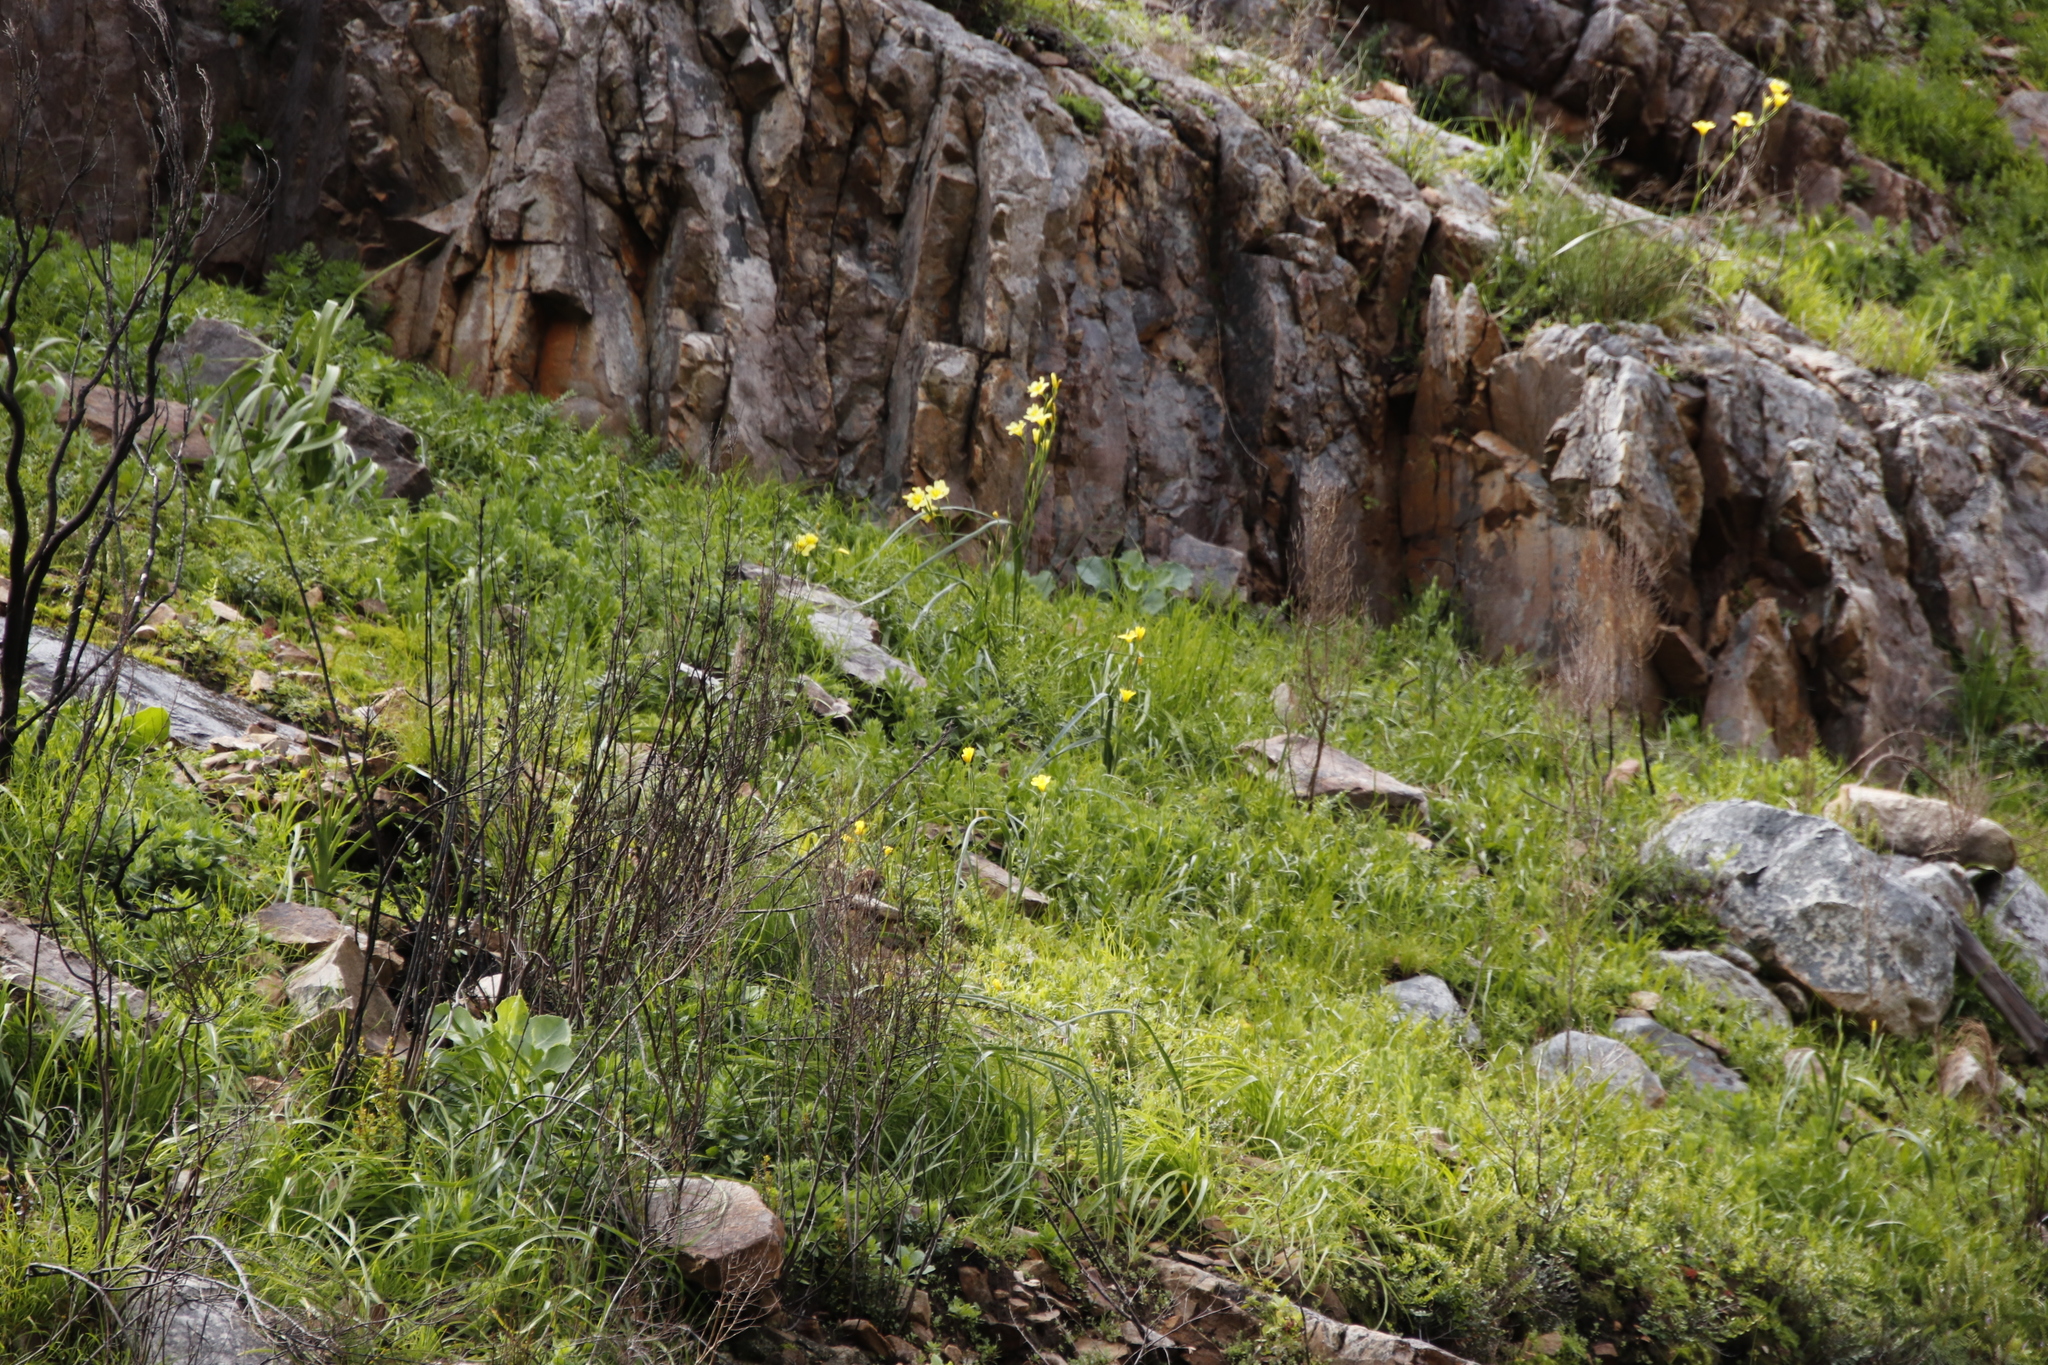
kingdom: Plantae
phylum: Tracheophyta
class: Liliopsida
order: Asparagales
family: Iridaceae
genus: Moraea
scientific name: Moraea ochroleuca
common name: Red tulp
